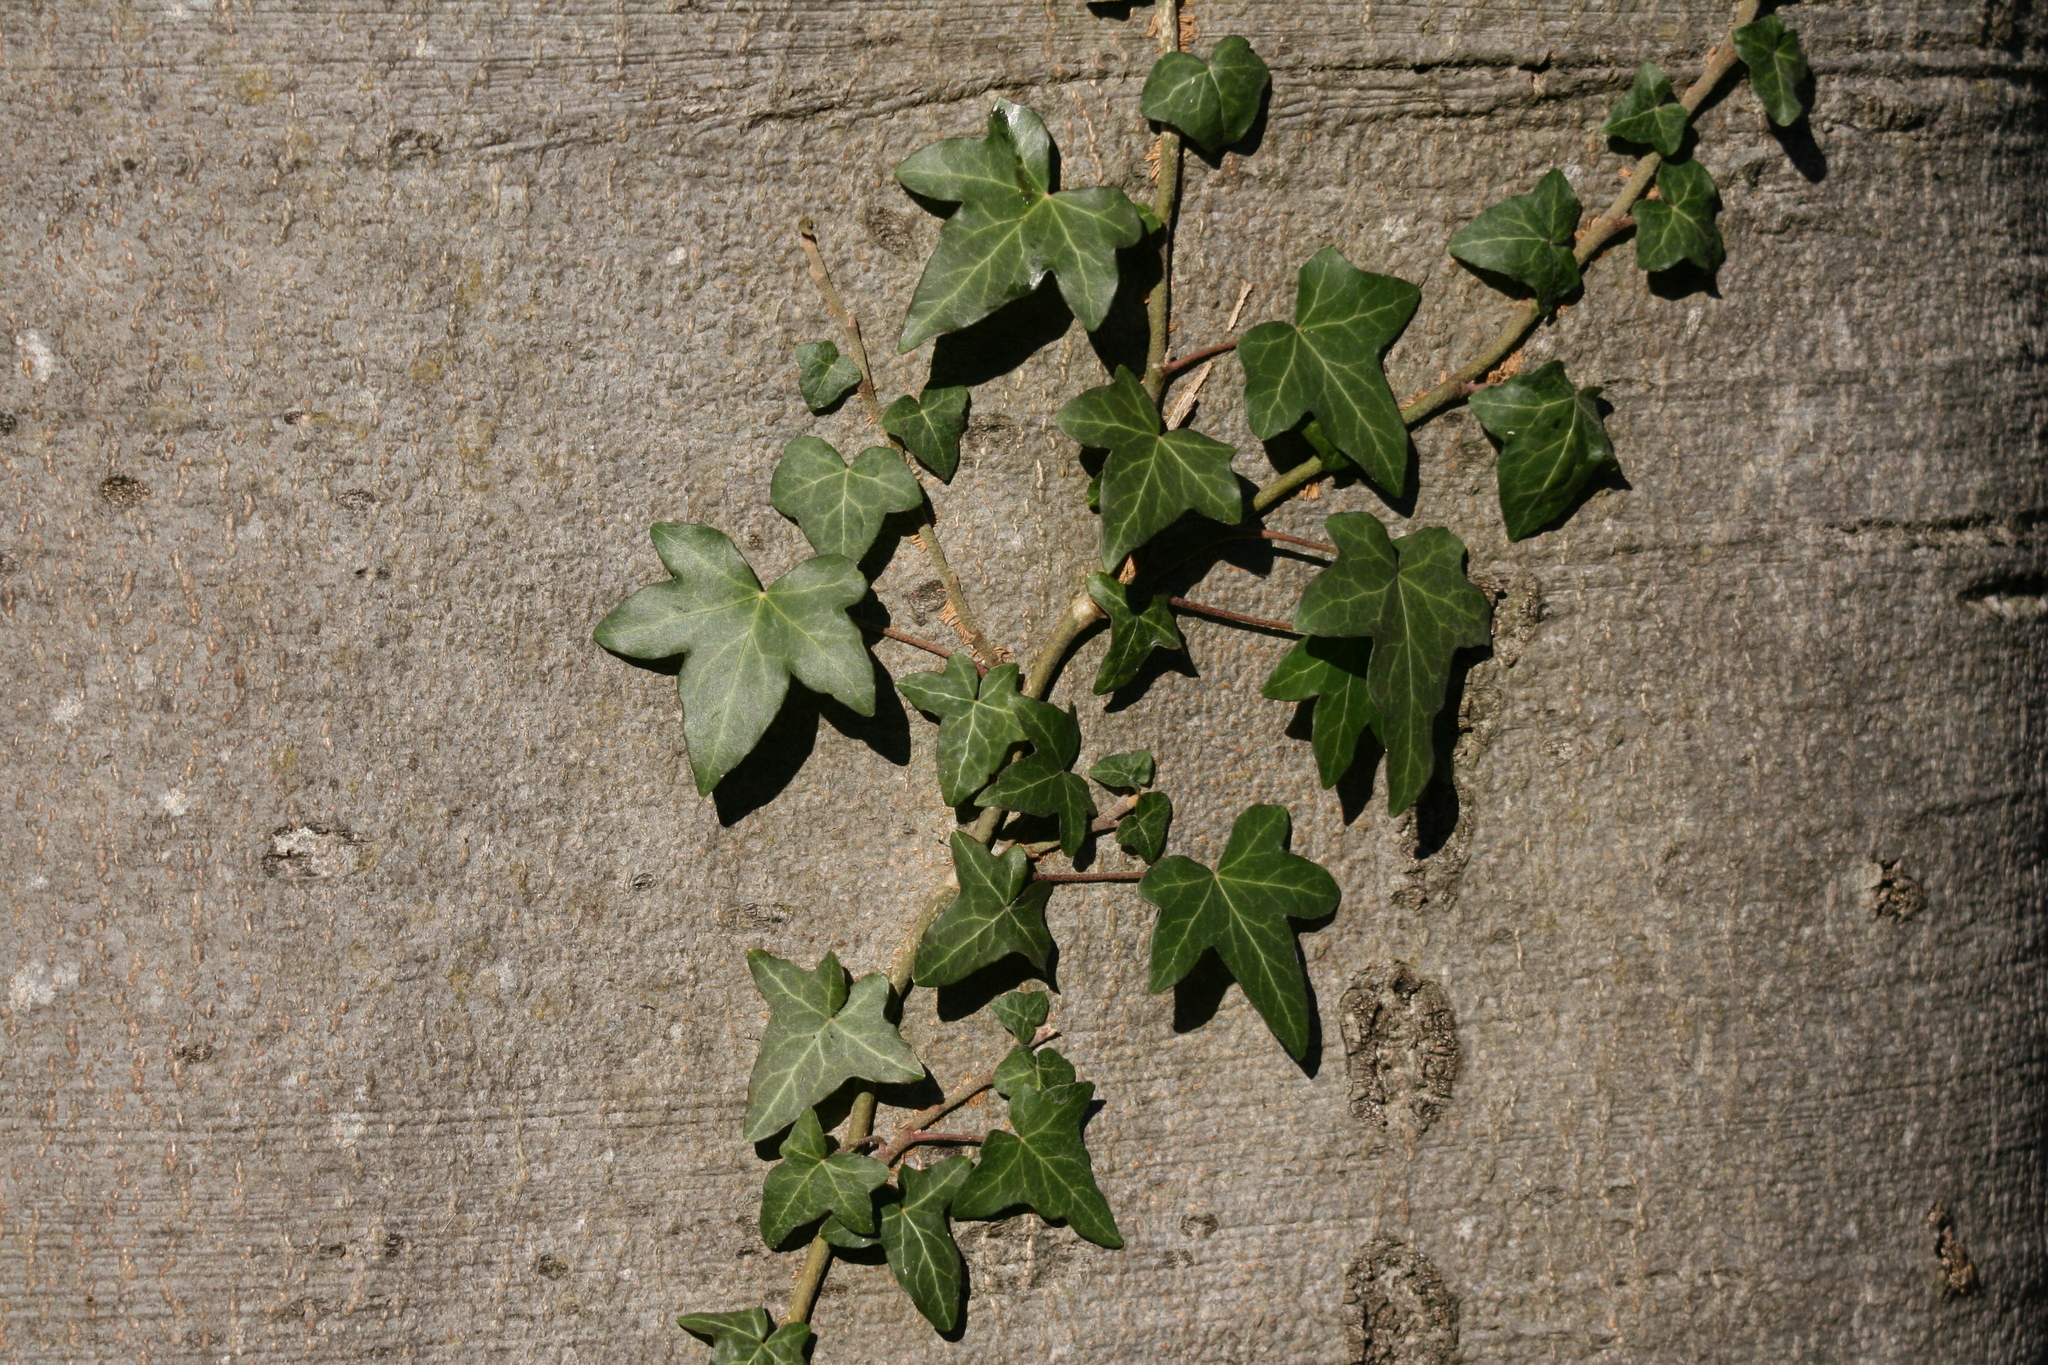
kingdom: Plantae
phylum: Tracheophyta
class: Magnoliopsida
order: Apiales
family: Araliaceae
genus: Hedera
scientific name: Hedera helix
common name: Ivy
